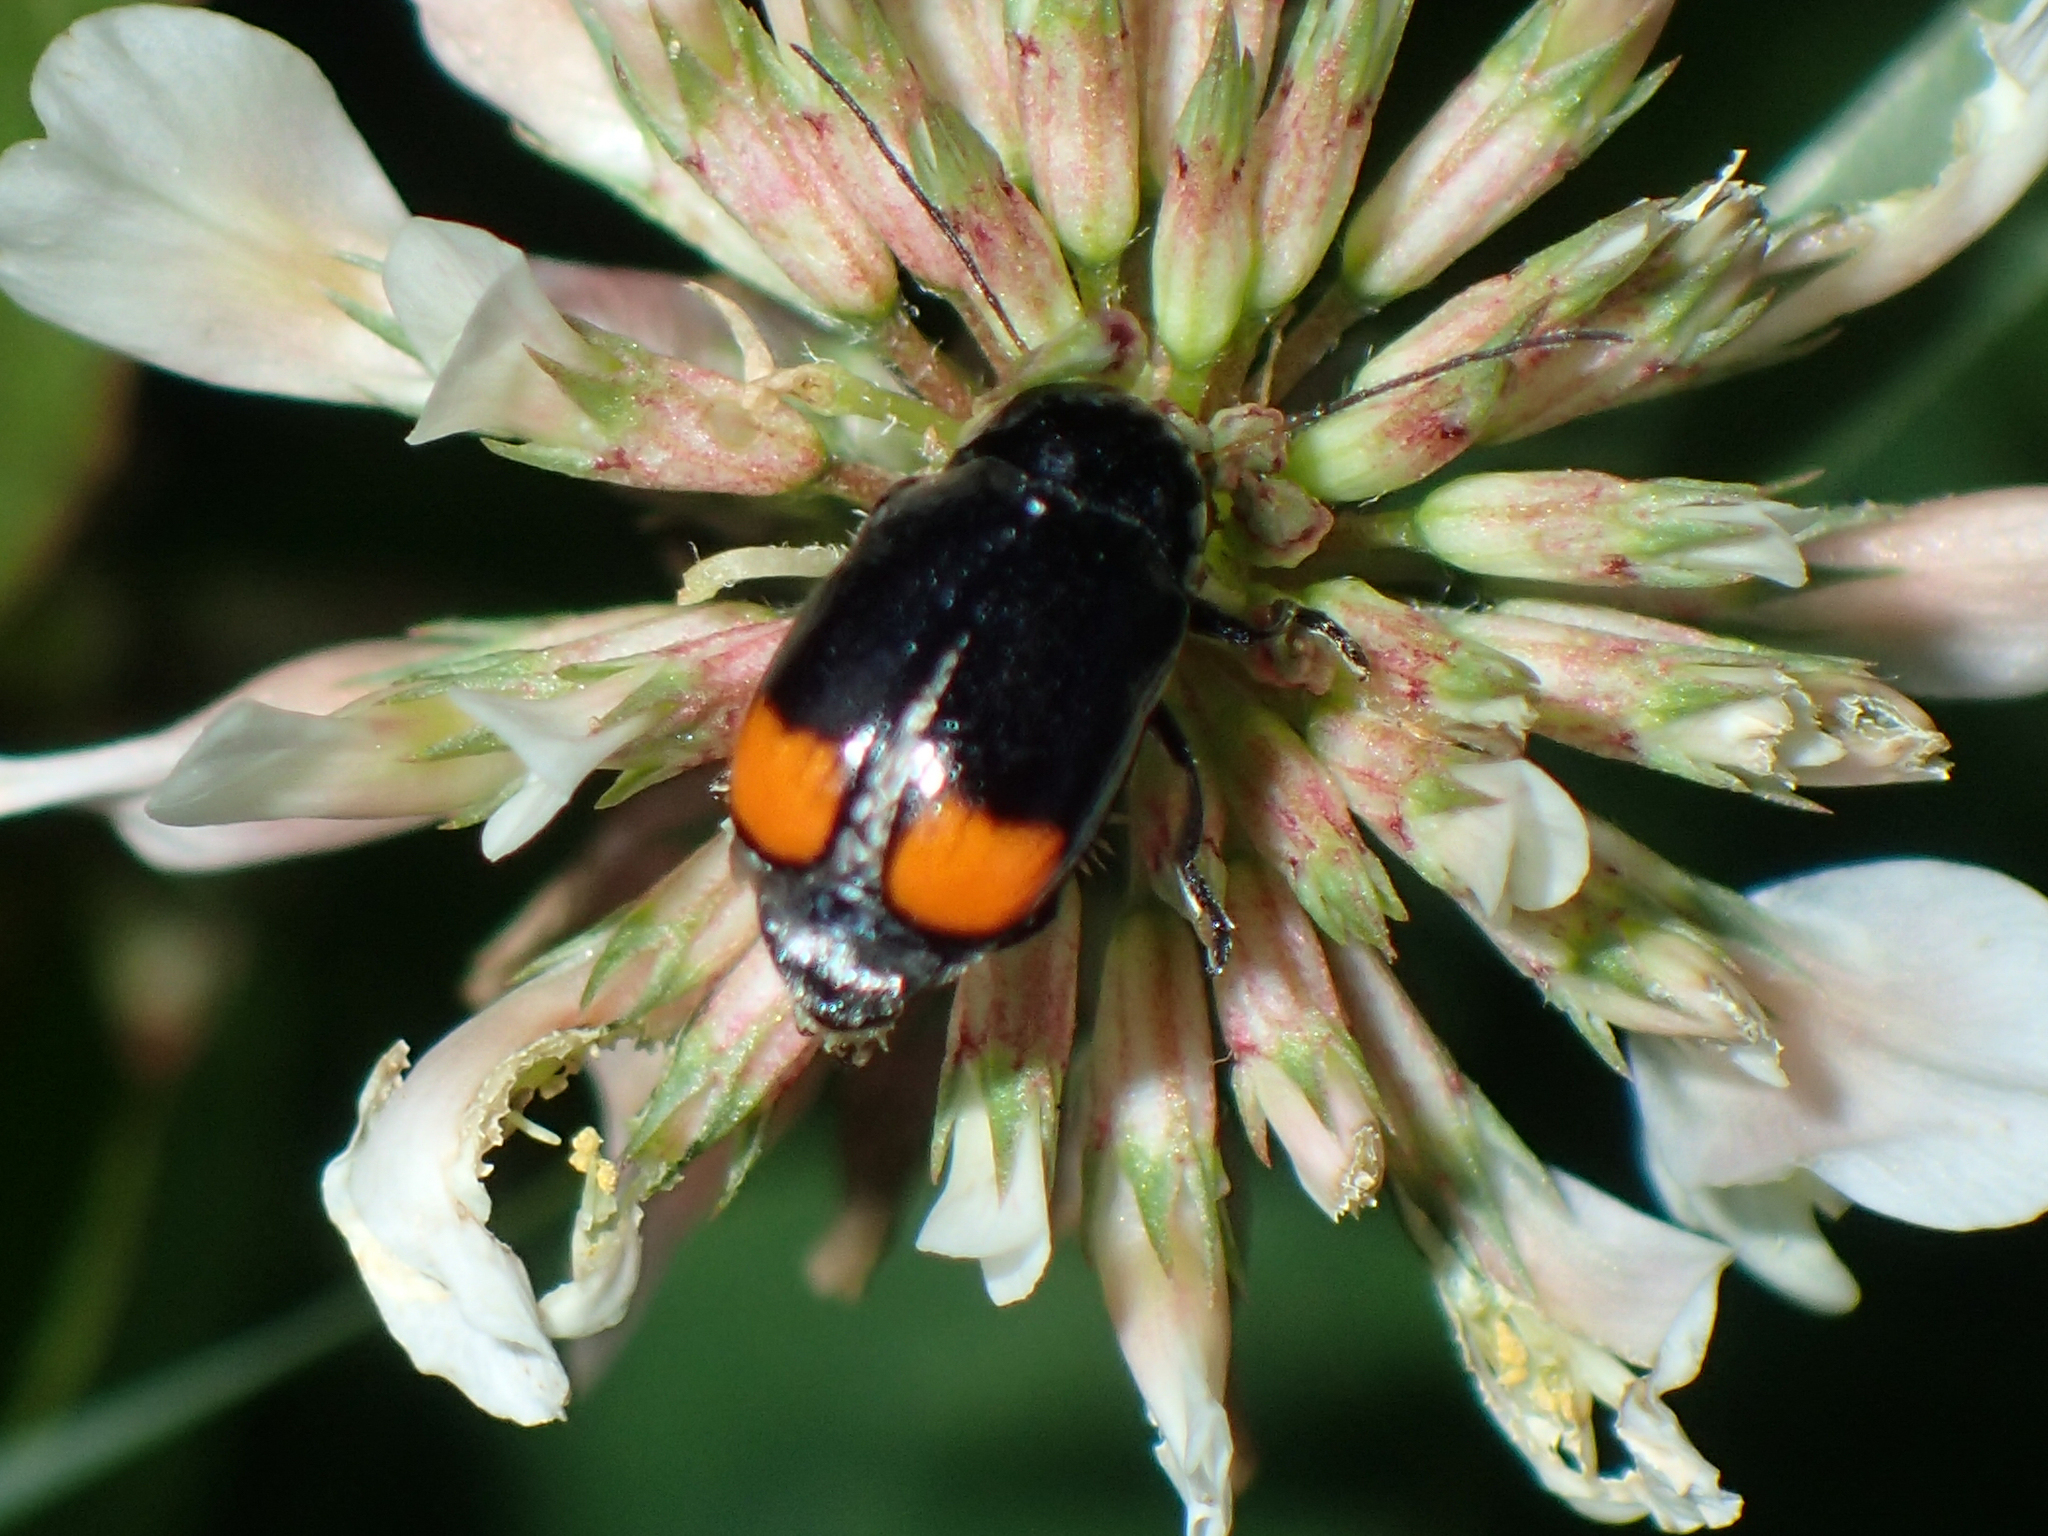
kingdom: Animalia
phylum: Arthropoda
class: Insecta
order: Coleoptera
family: Chrysomelidae
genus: Cryptocephalus
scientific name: Cryptocephalus biguttatus
